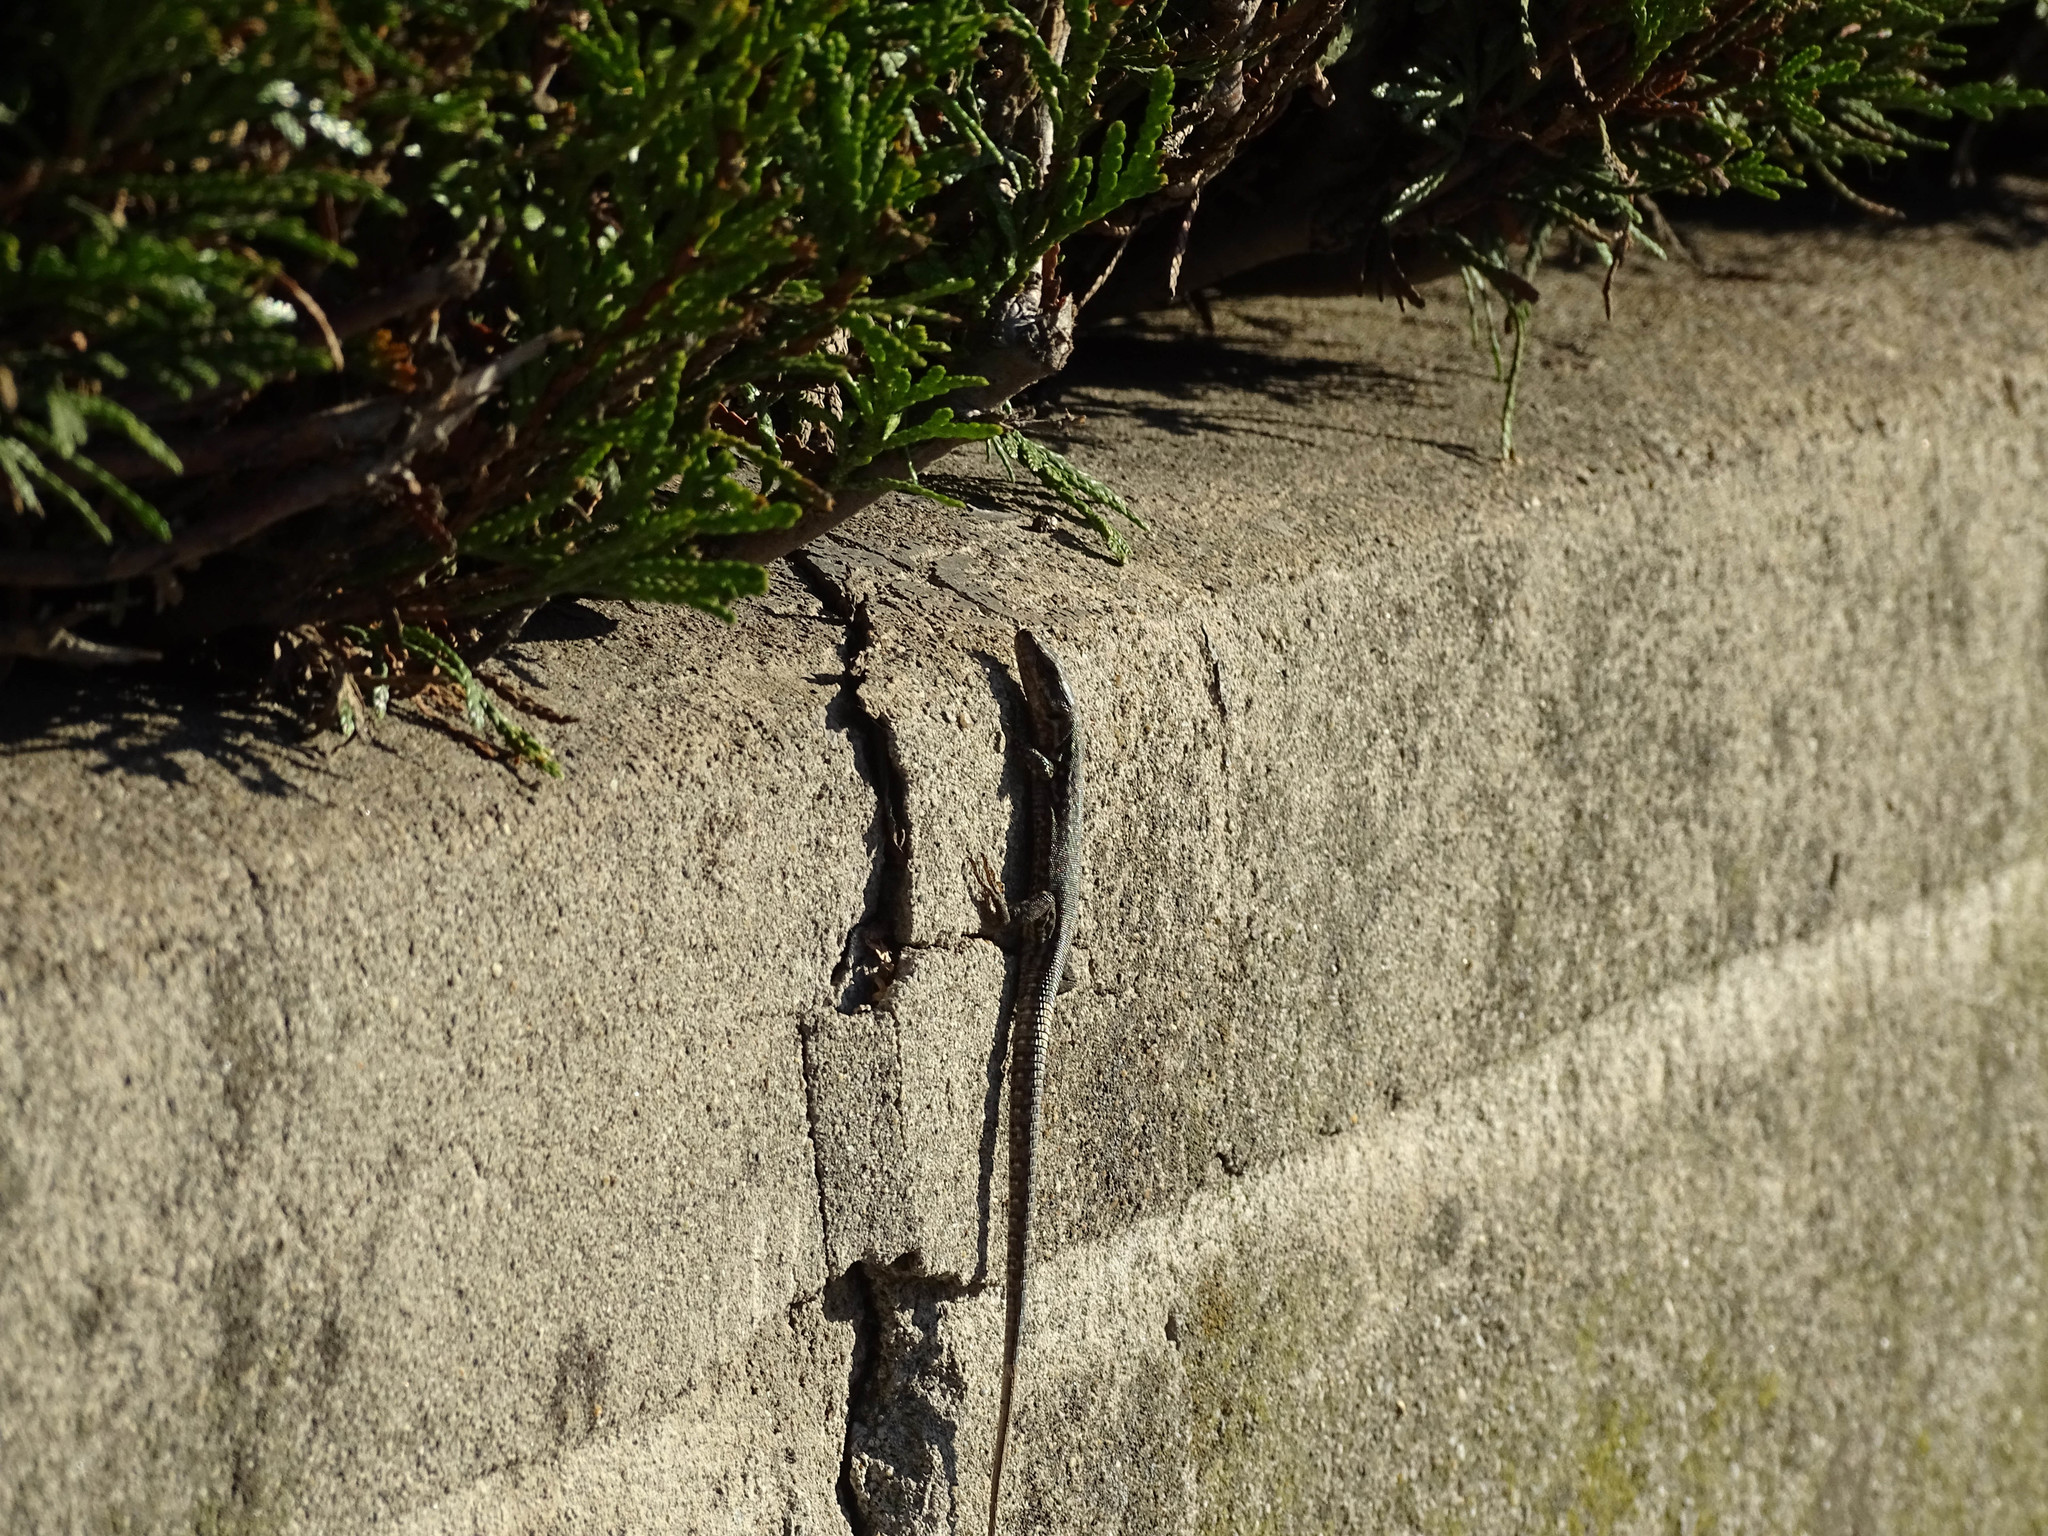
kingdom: Animalia
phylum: Chordata
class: Squamata
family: Lacertidae
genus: Podarcis
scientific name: Podarcis muralis
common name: Common wall lizard
